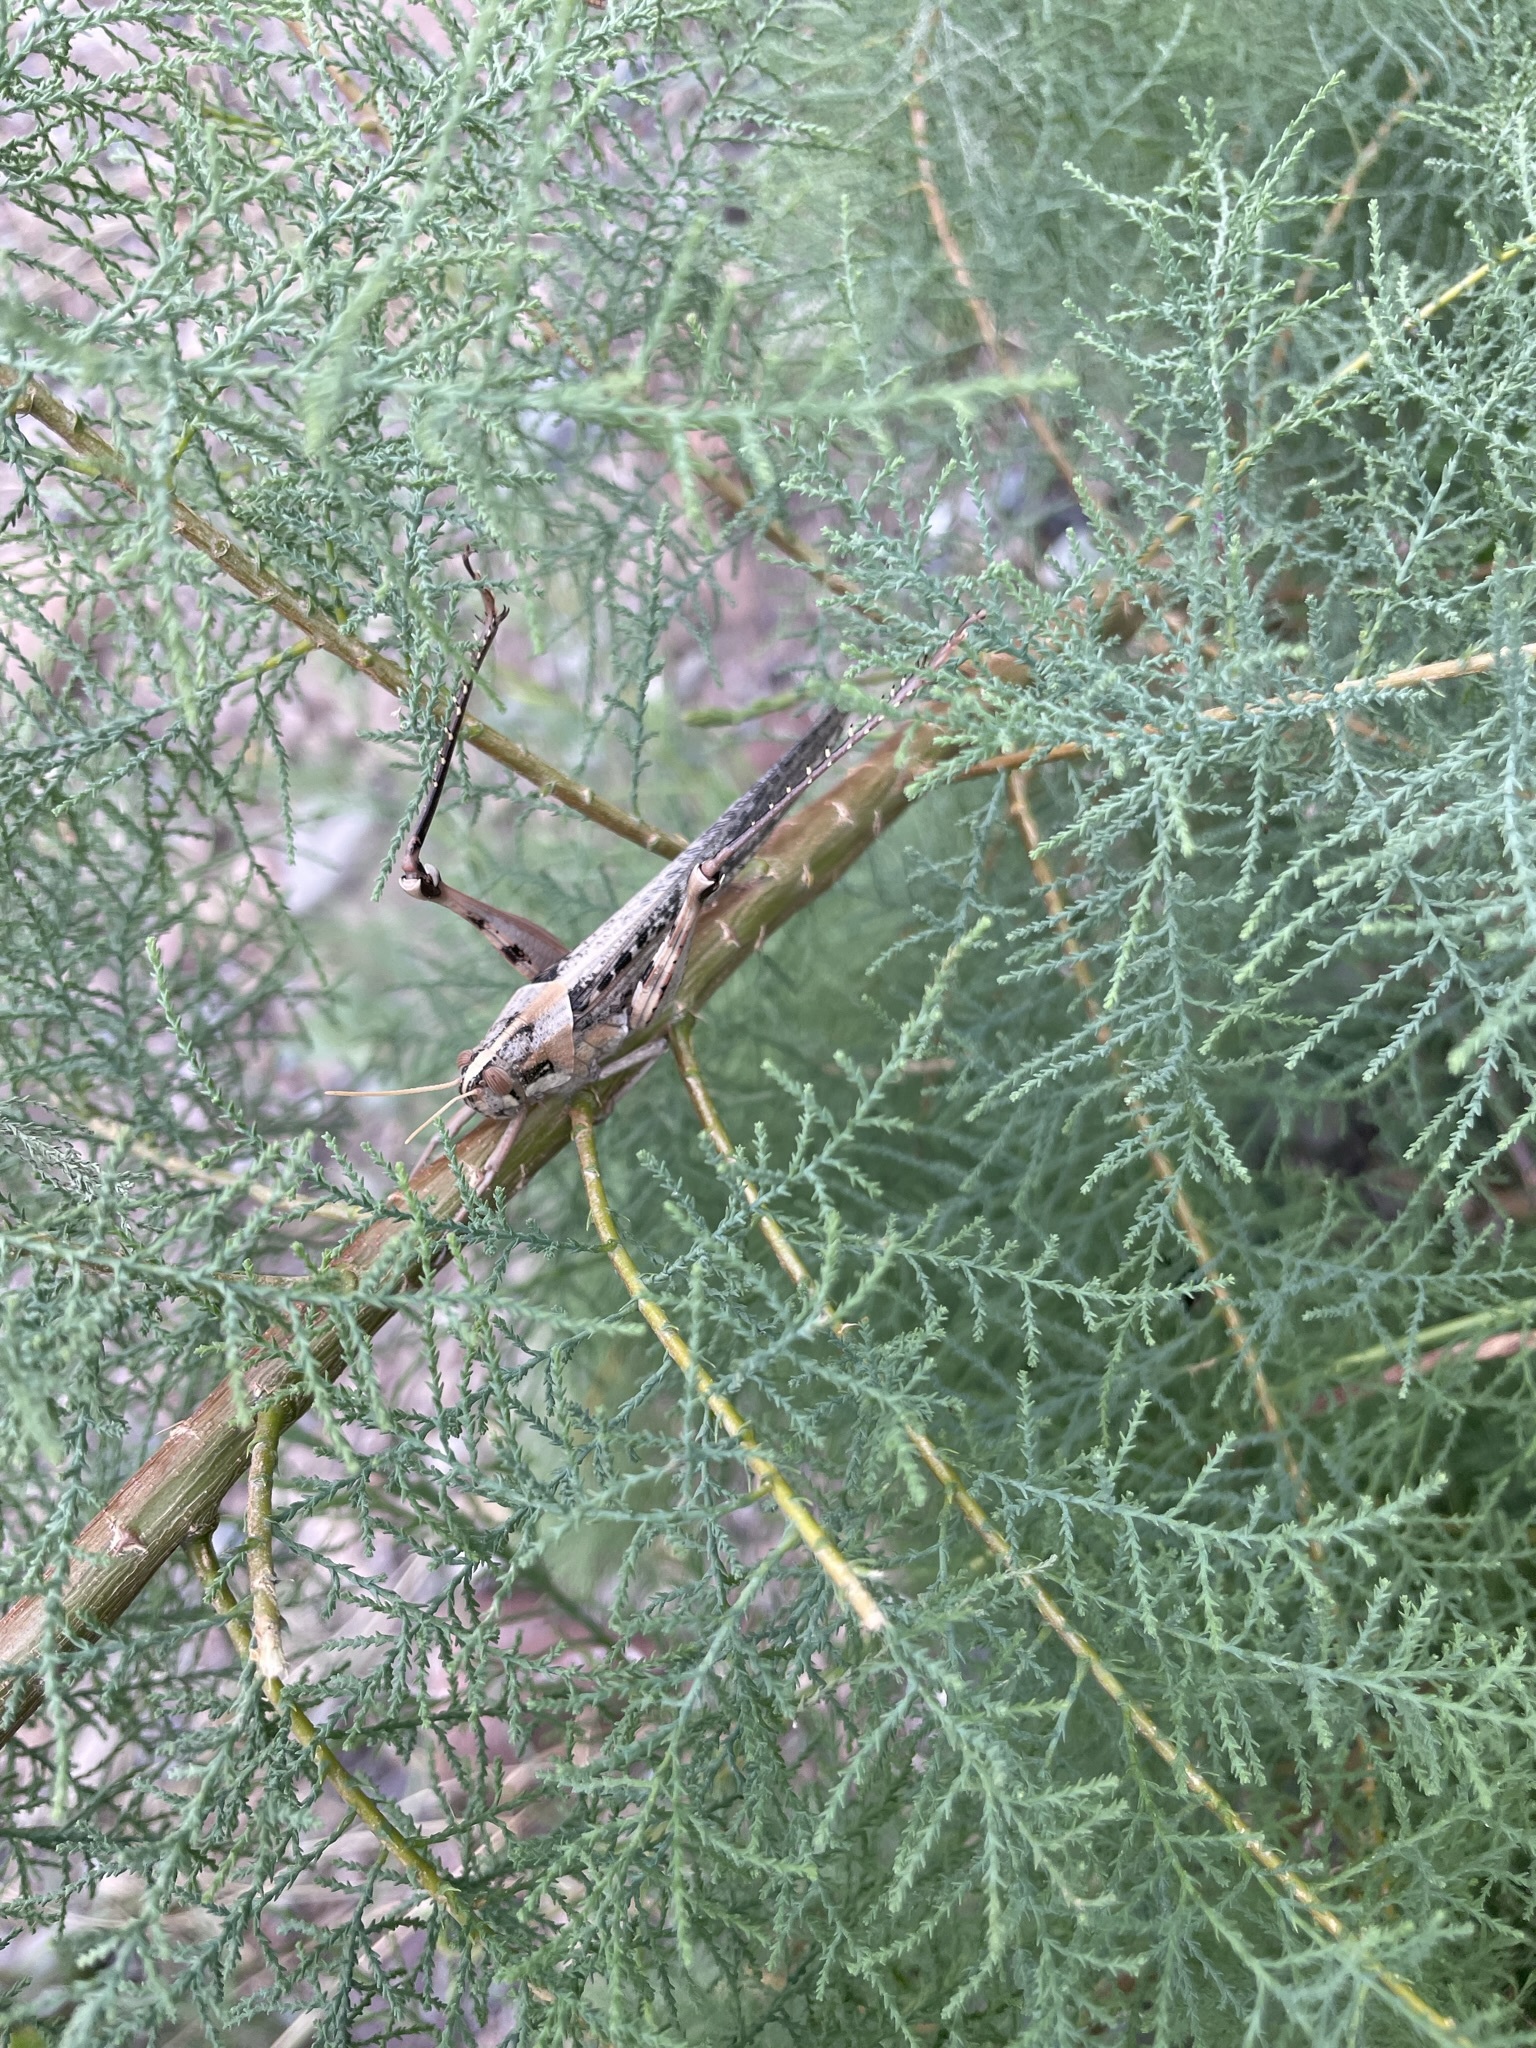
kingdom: Animalia
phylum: Arthropoda
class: Insecta
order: Orthoptera
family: Acrididae
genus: Schistocerca
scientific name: Schistocerca nitens
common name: Vagrant grasshopper
